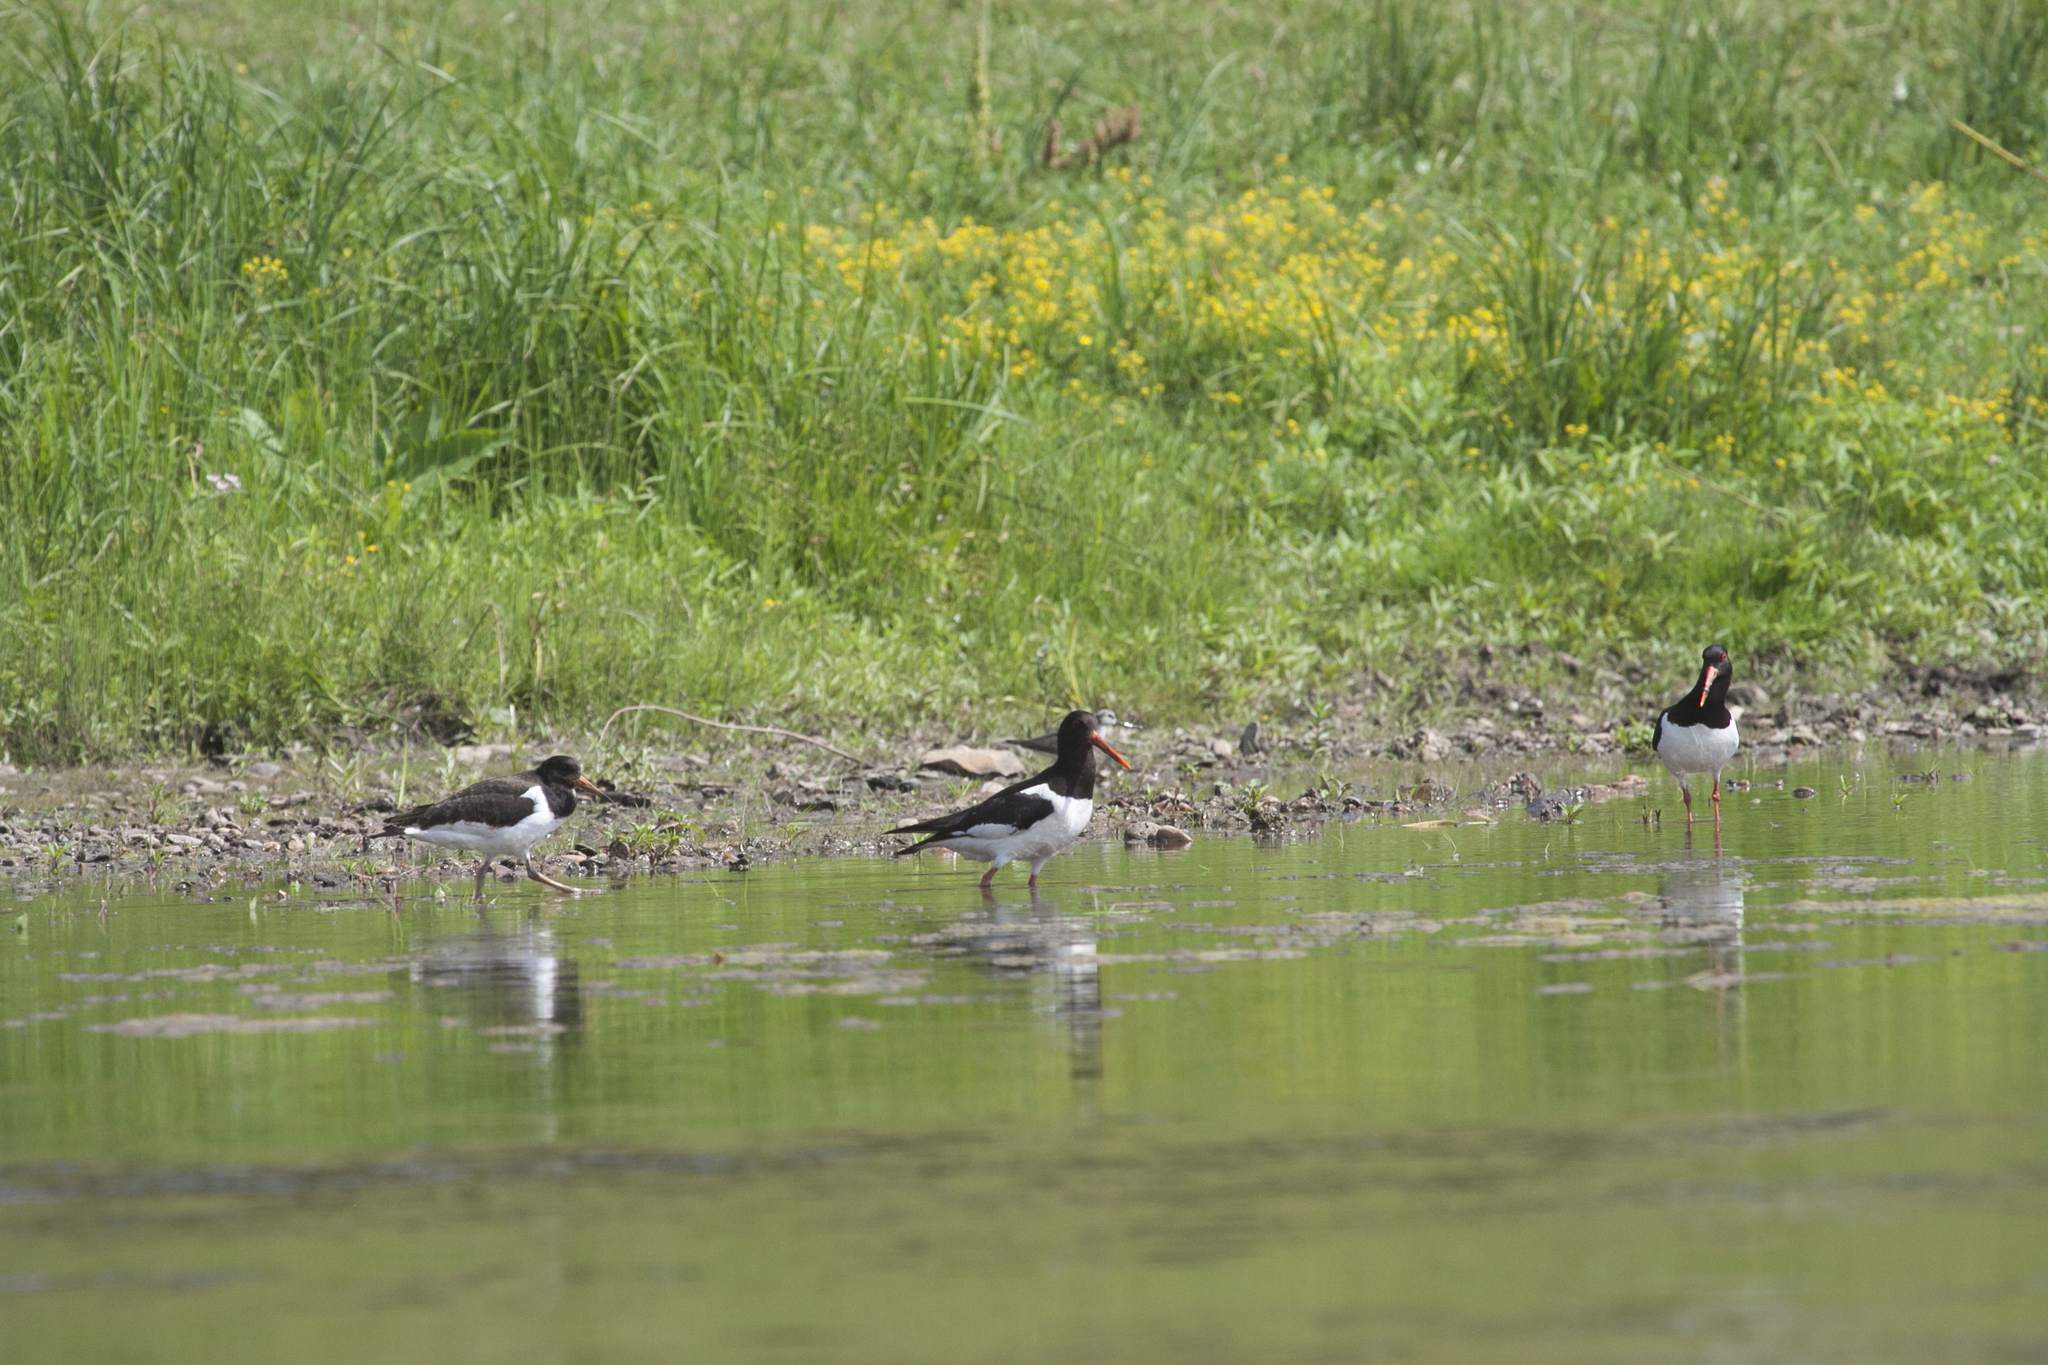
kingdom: Animalia
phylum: Chordata
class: Aves
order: Charadriiformes
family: Haematopodidae
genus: Haematopus
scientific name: Haematopus ostralegus
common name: Eurasian oystercatcher
